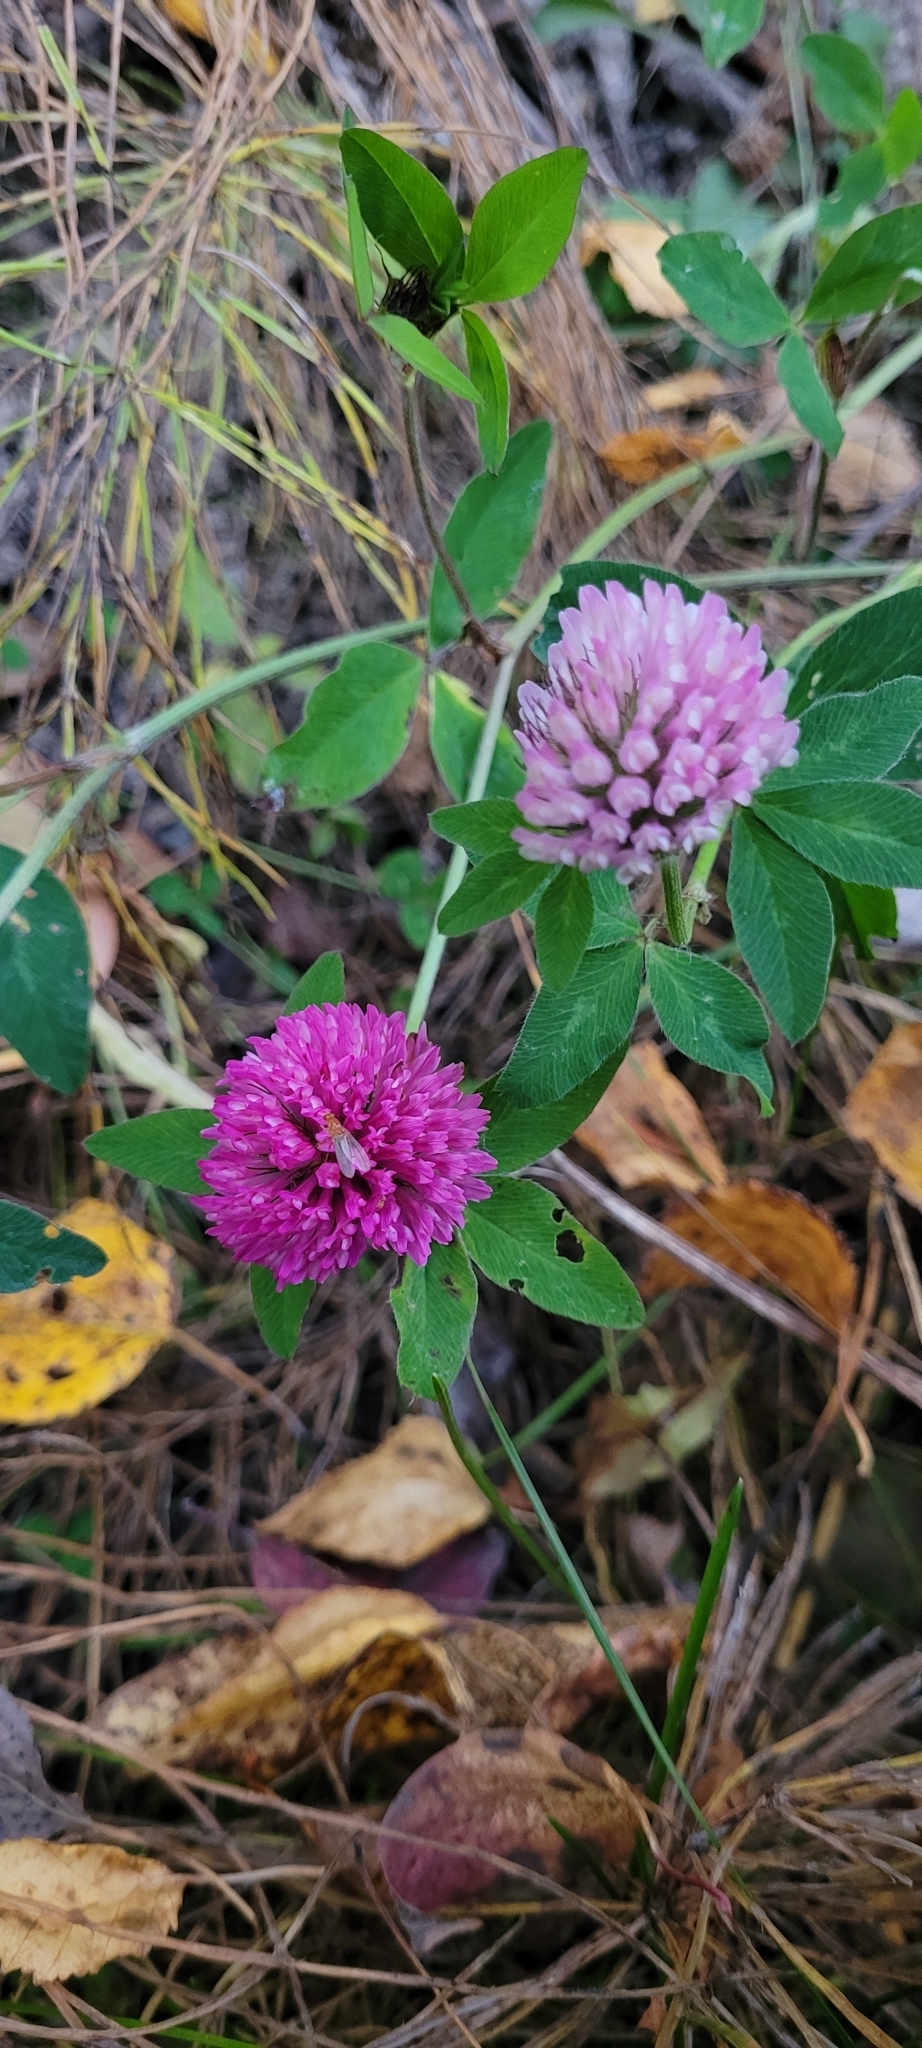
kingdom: Plantae
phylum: Tracheophyta
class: Magnoliopsida
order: Fabales
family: Fabaceae
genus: Trifolium
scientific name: Trifolium pratense
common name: Red clover
